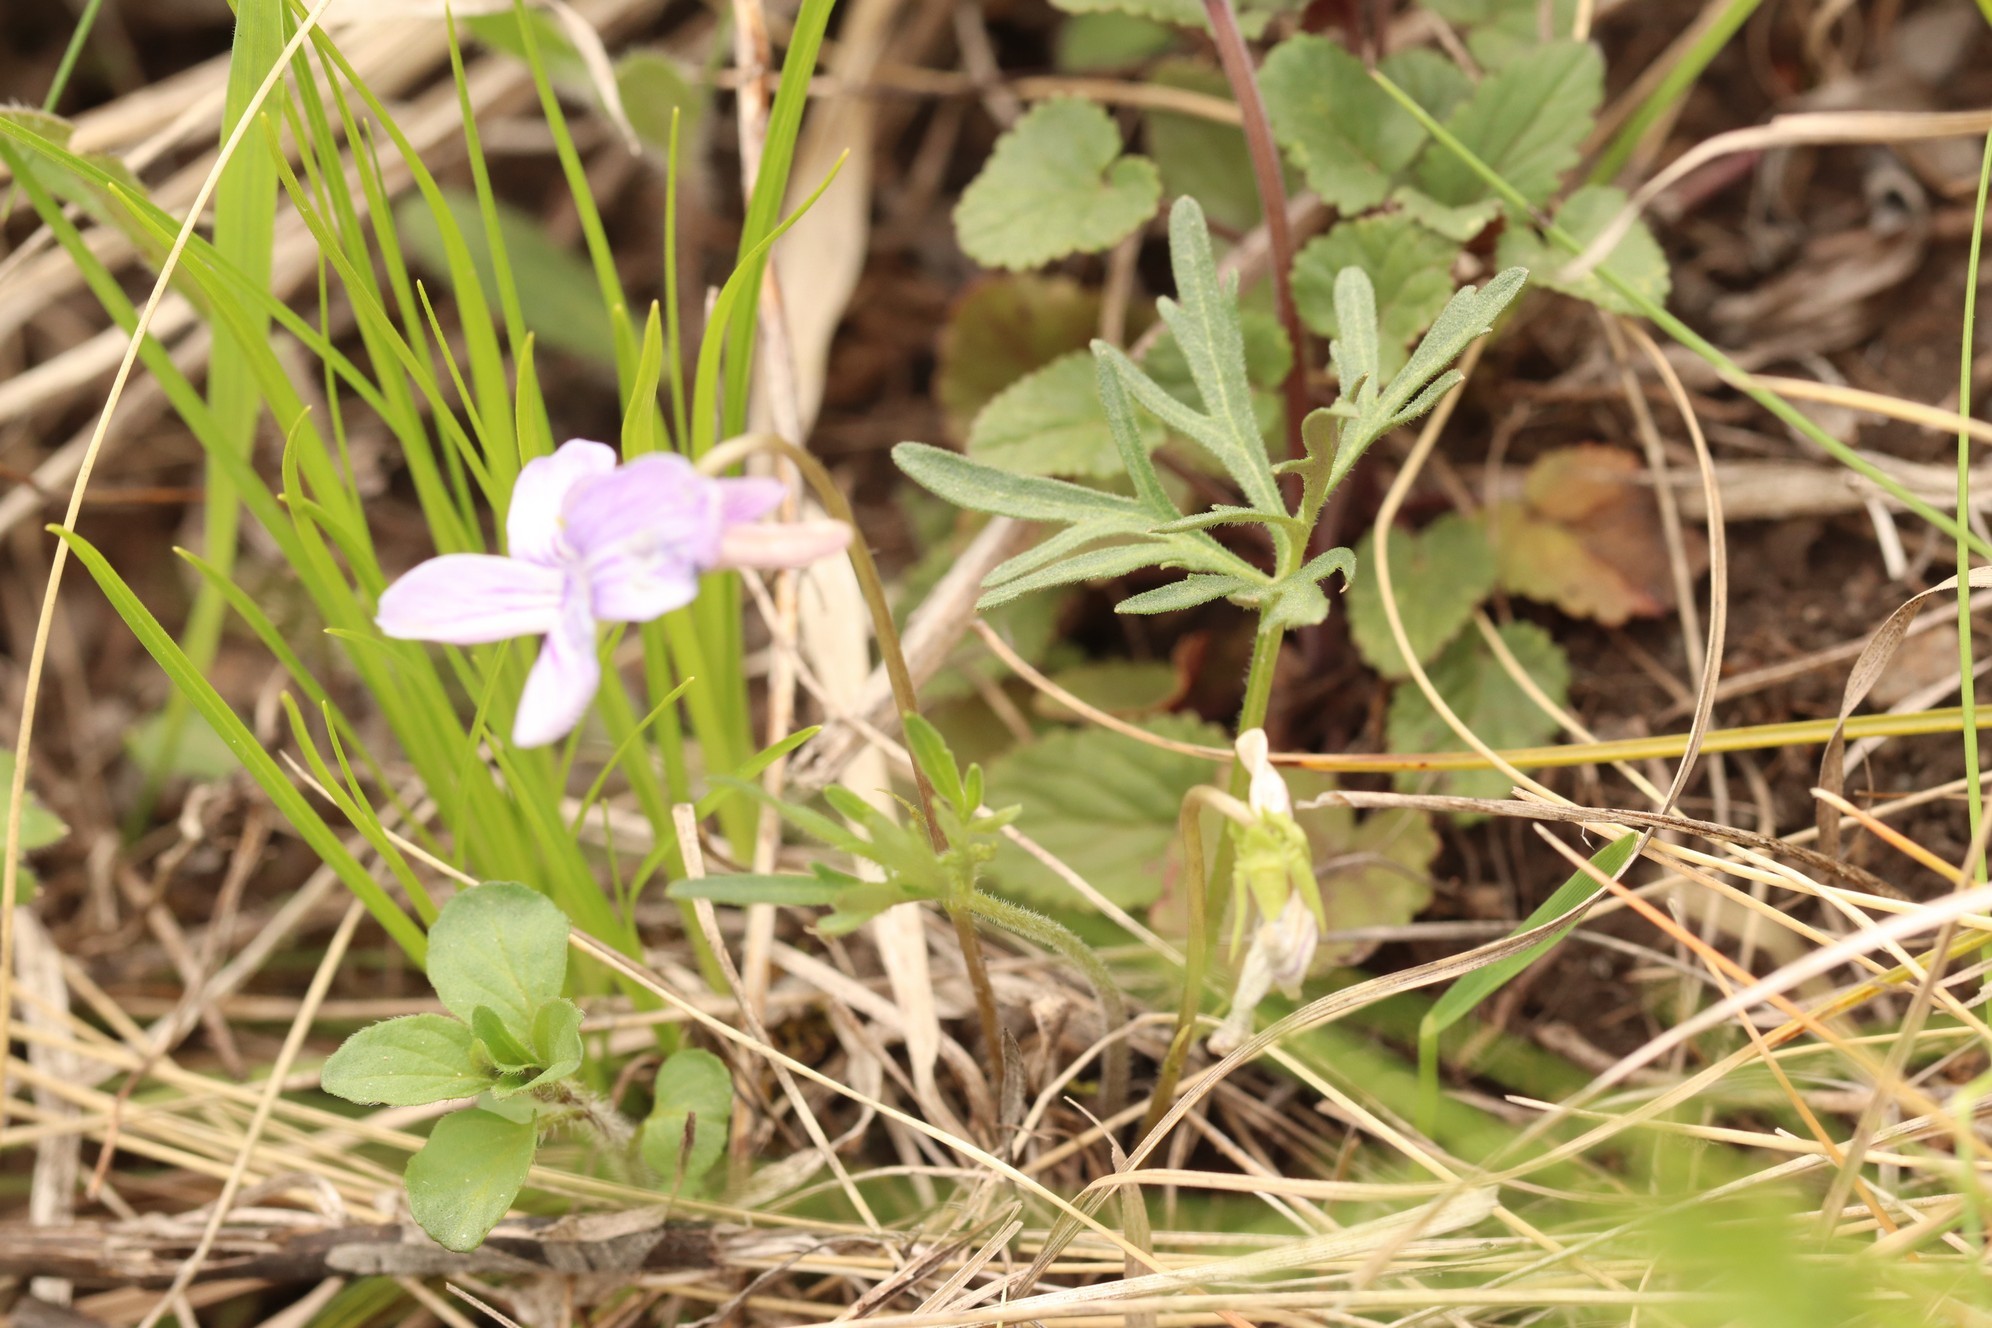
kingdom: Plantae
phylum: Tracheophyta
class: Magnoliopsida
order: Malpighiales
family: Violaceae
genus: Viola
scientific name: Viola multifida
